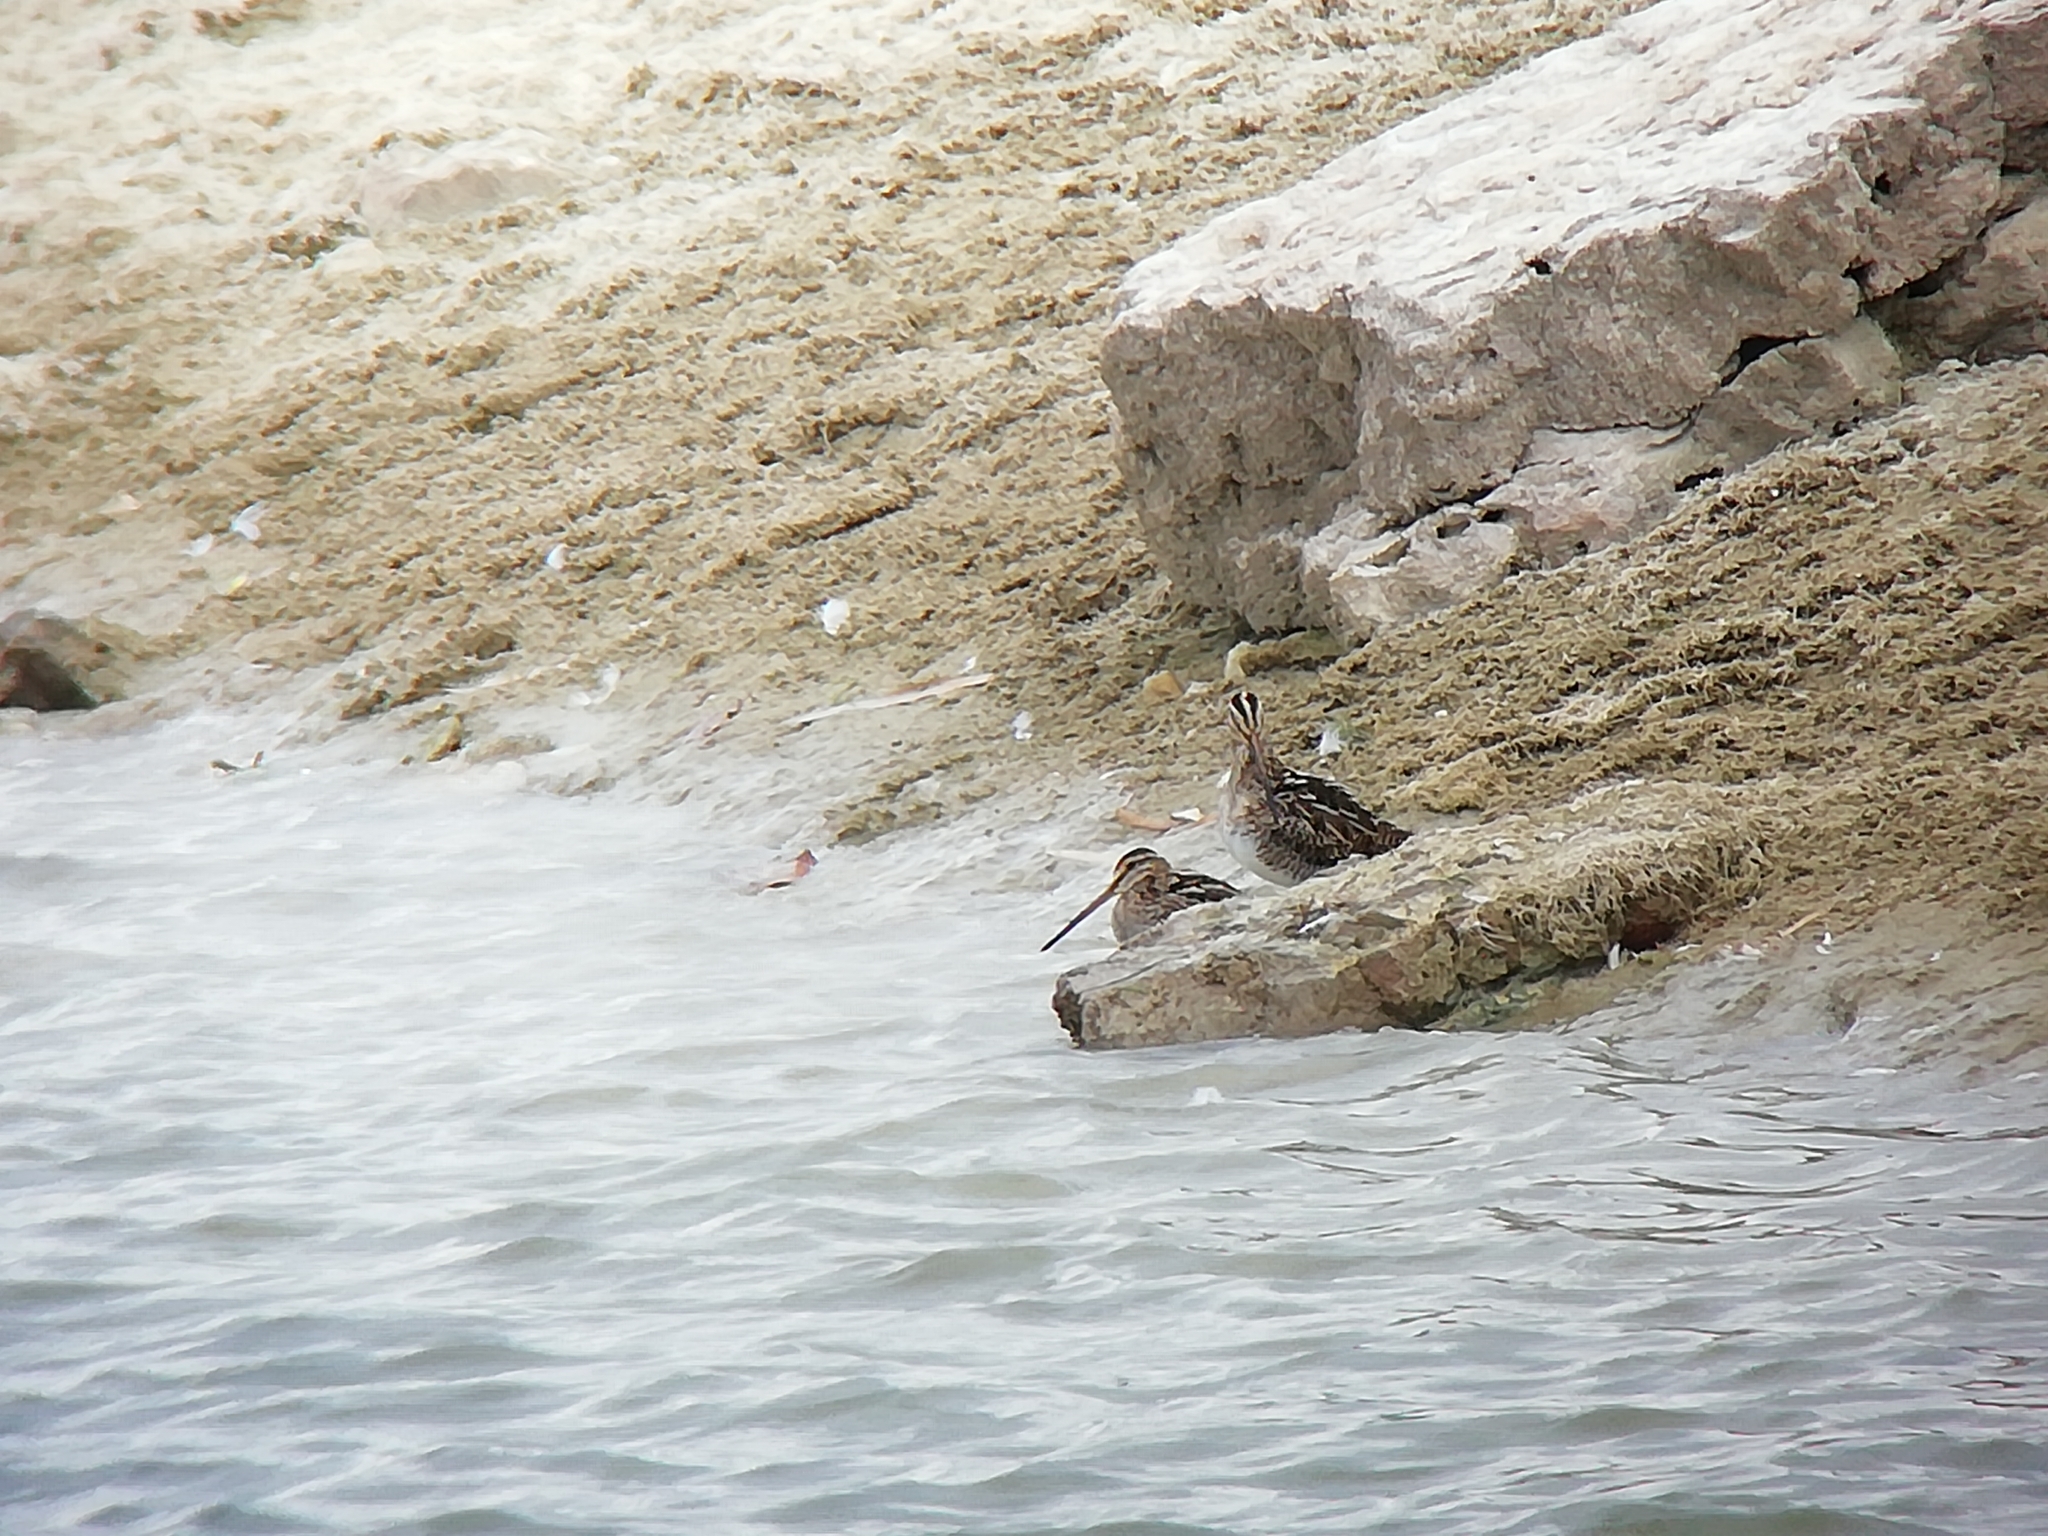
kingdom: Animalia
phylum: Chordata
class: Aves
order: Charadriiformes
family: Scolopacidae
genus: Gallinago
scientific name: Gallinago gallinago
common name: Common snipe
